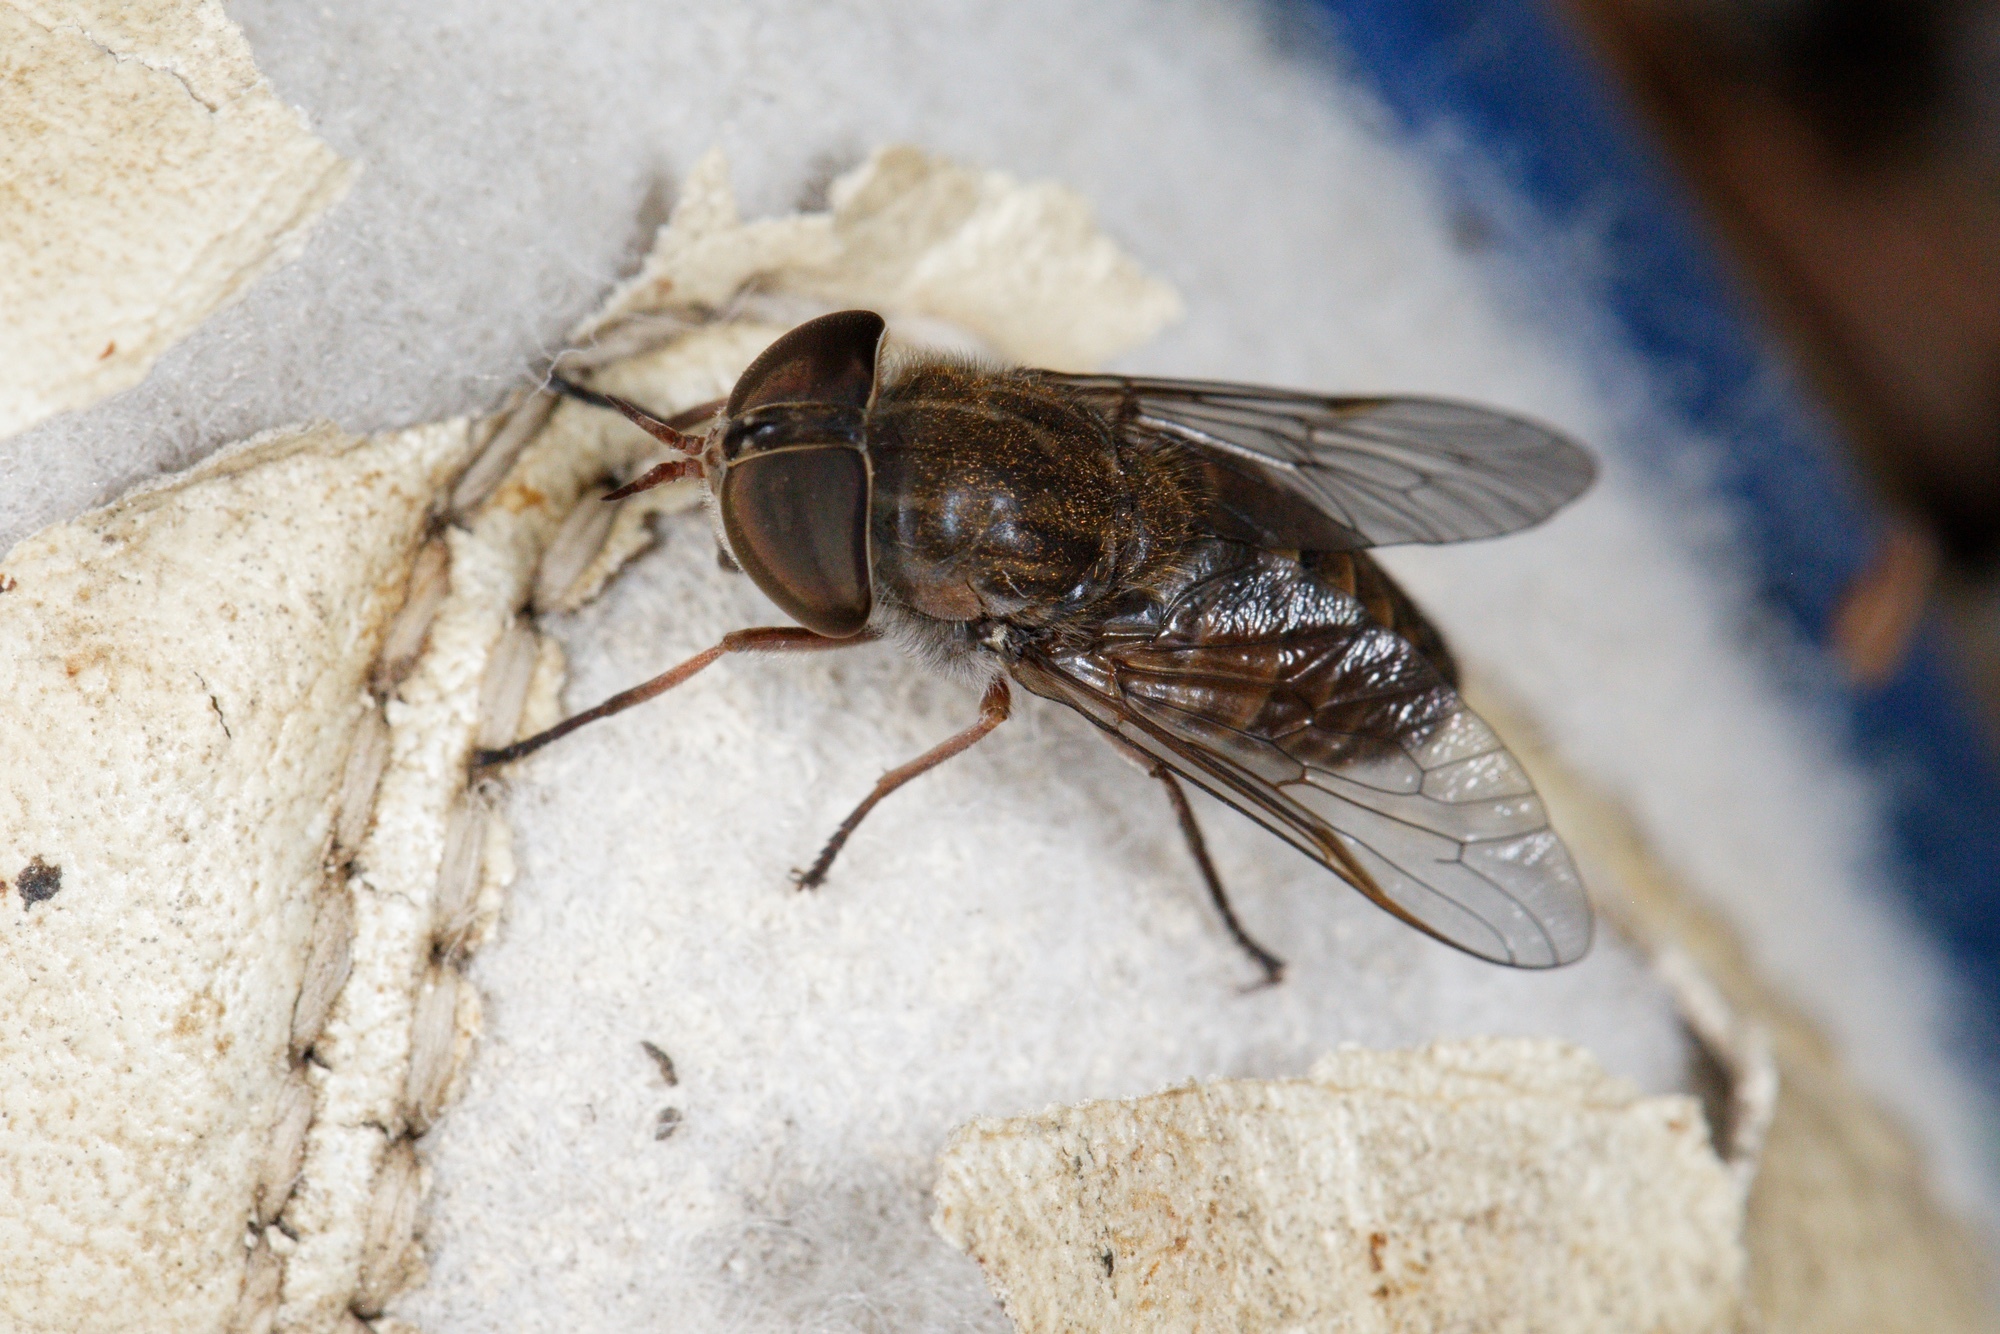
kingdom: Animalia
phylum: Arthropoda
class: Insecta
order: Diptera
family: Tabanidae
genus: Dasybasis
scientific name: Dasybasis
